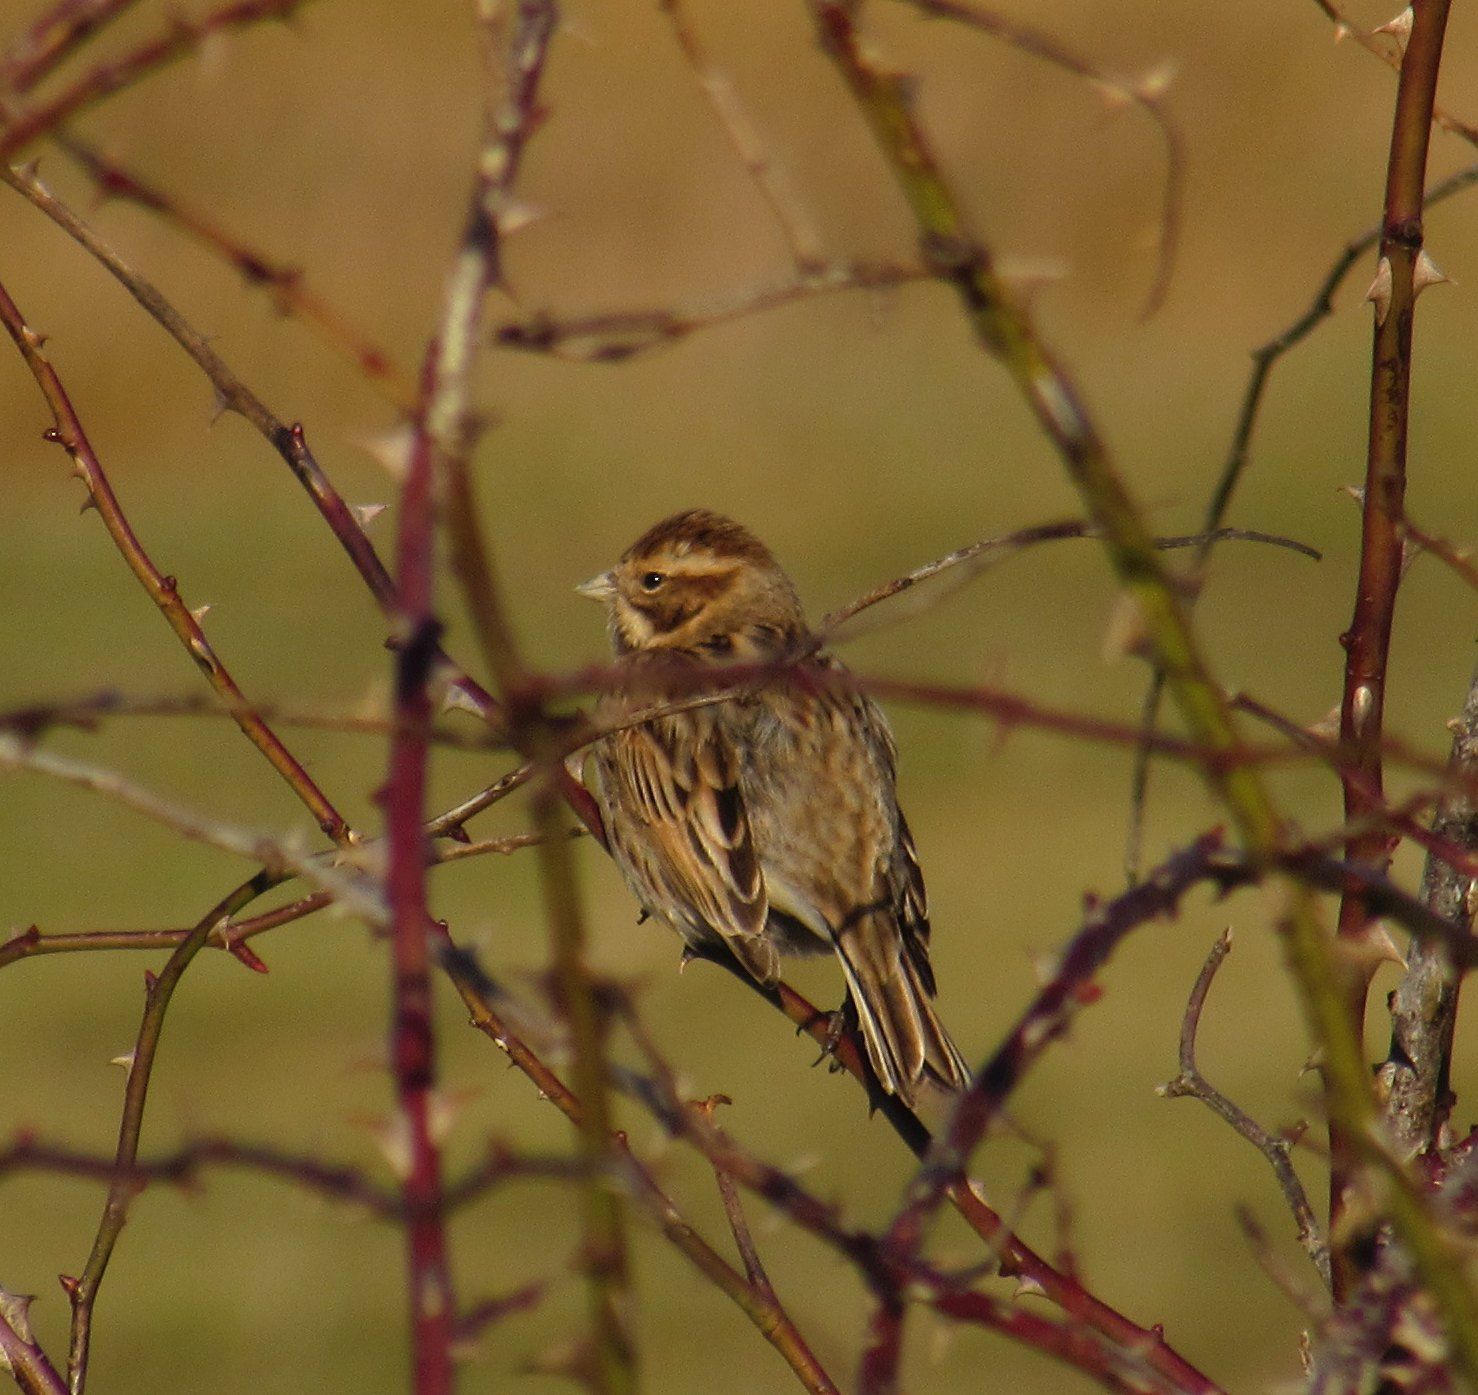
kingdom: Animalia
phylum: Chordata
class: Aves
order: Passeriformes
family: Emberizidae
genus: Emberiza
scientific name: Emberiza schoeniclus
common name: Reed bunting
